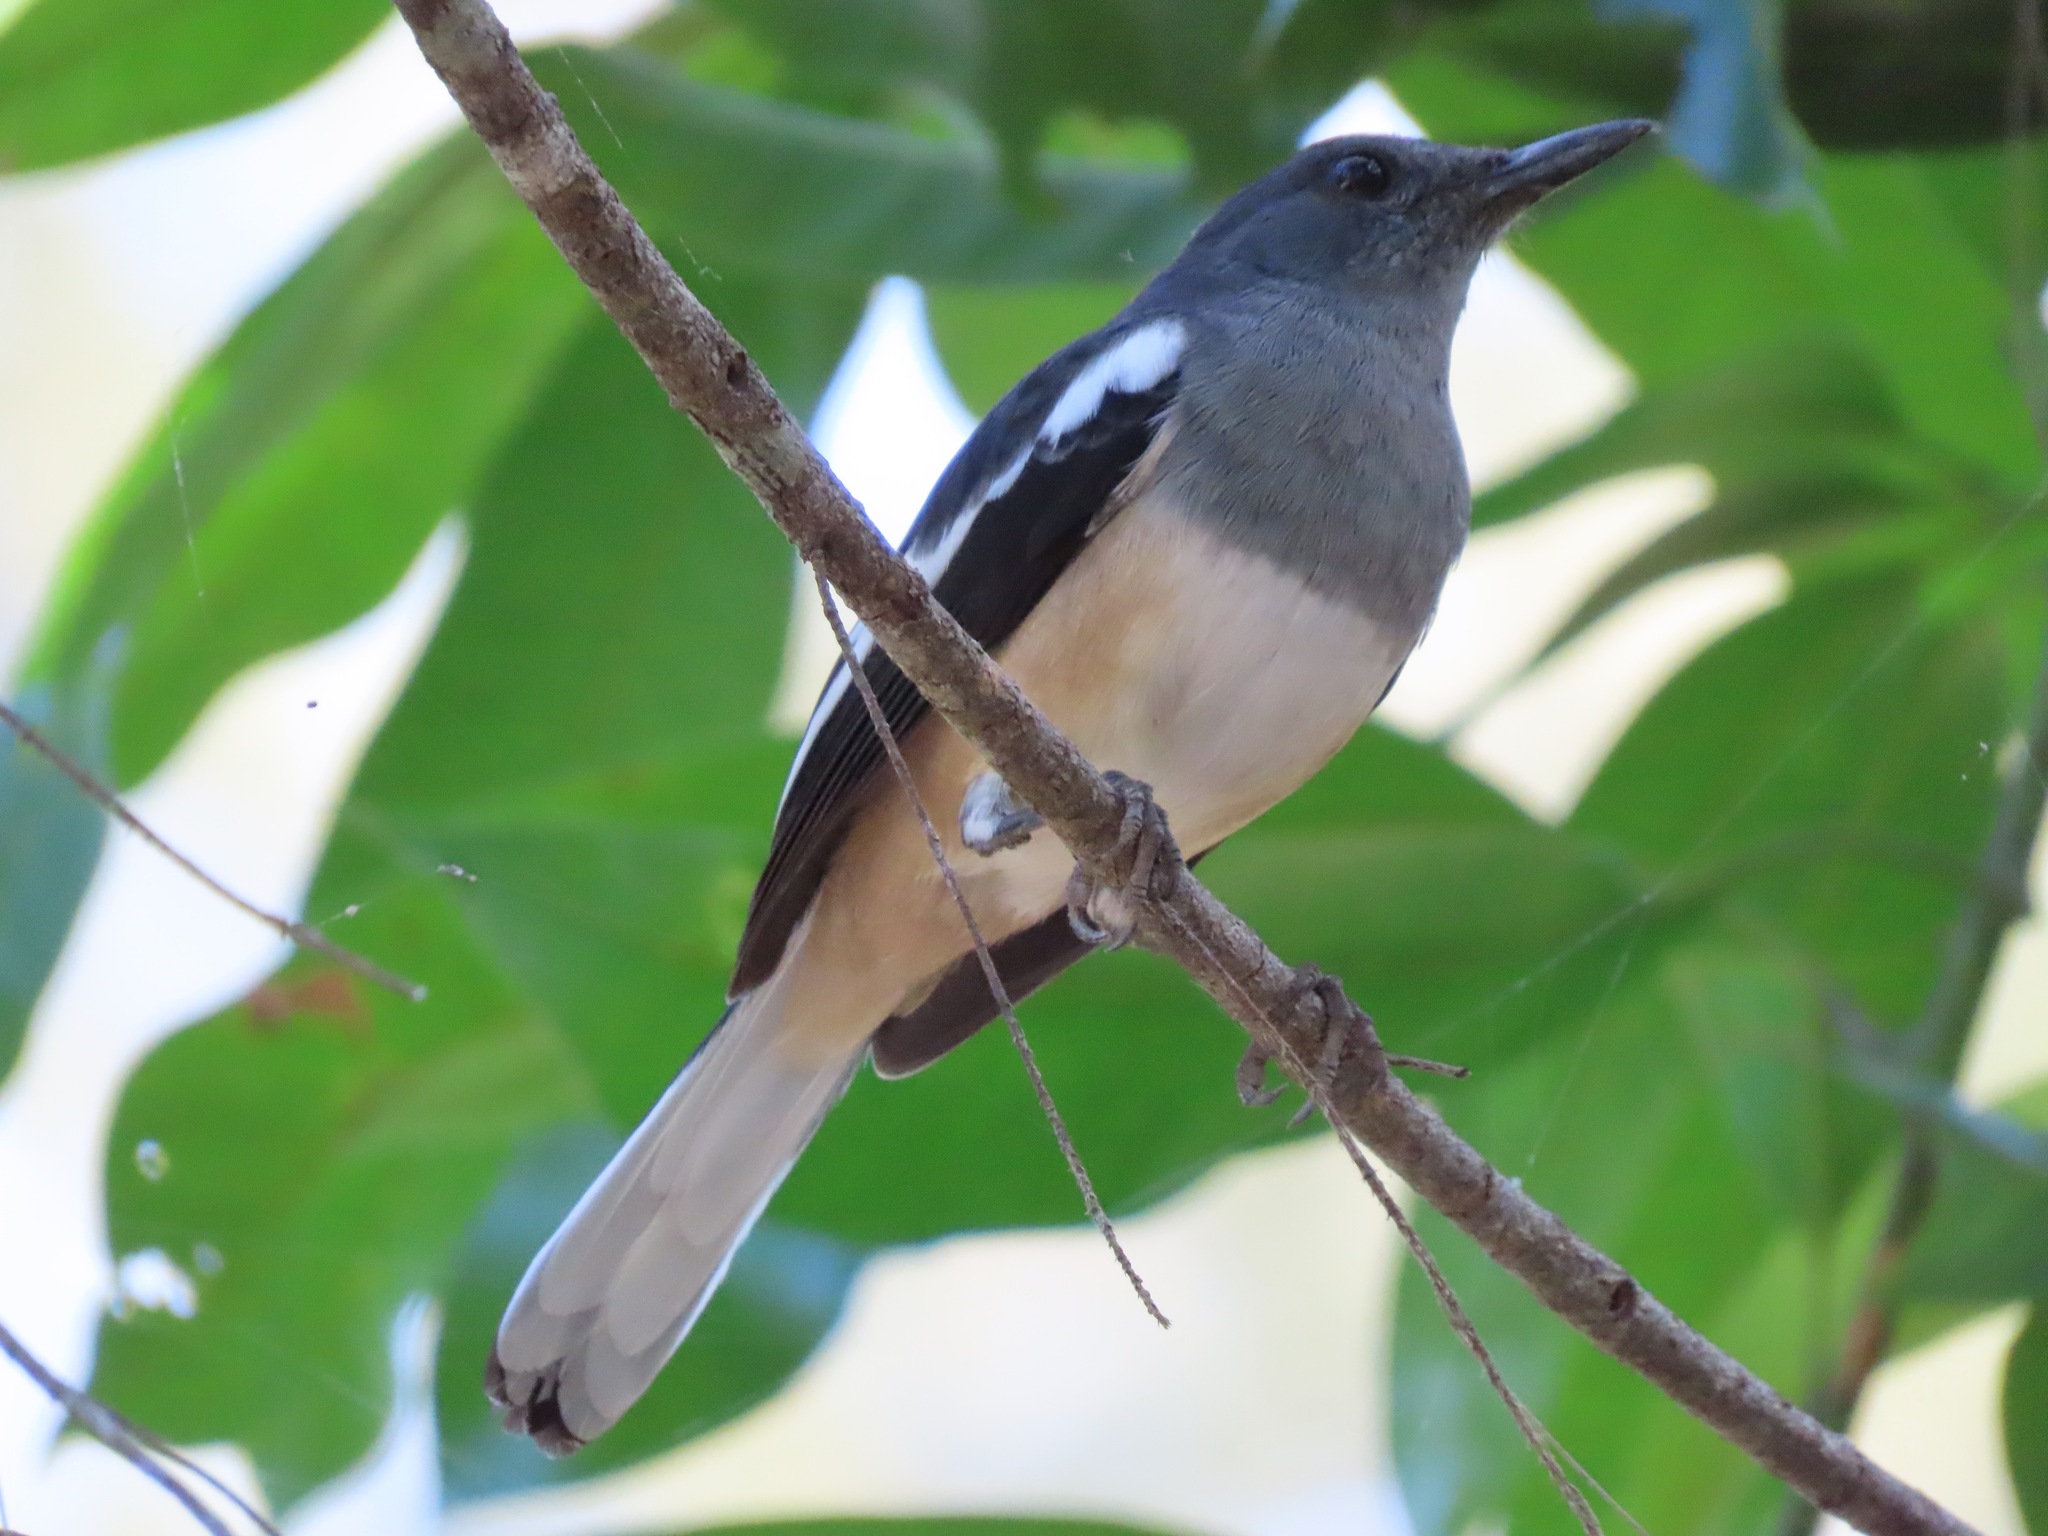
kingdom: Animalia
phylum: Chordata
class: Aves
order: Passeriformes
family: Muscicapidae
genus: Copsychus
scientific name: Copsychus saularis
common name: Oriental magpie-robin
